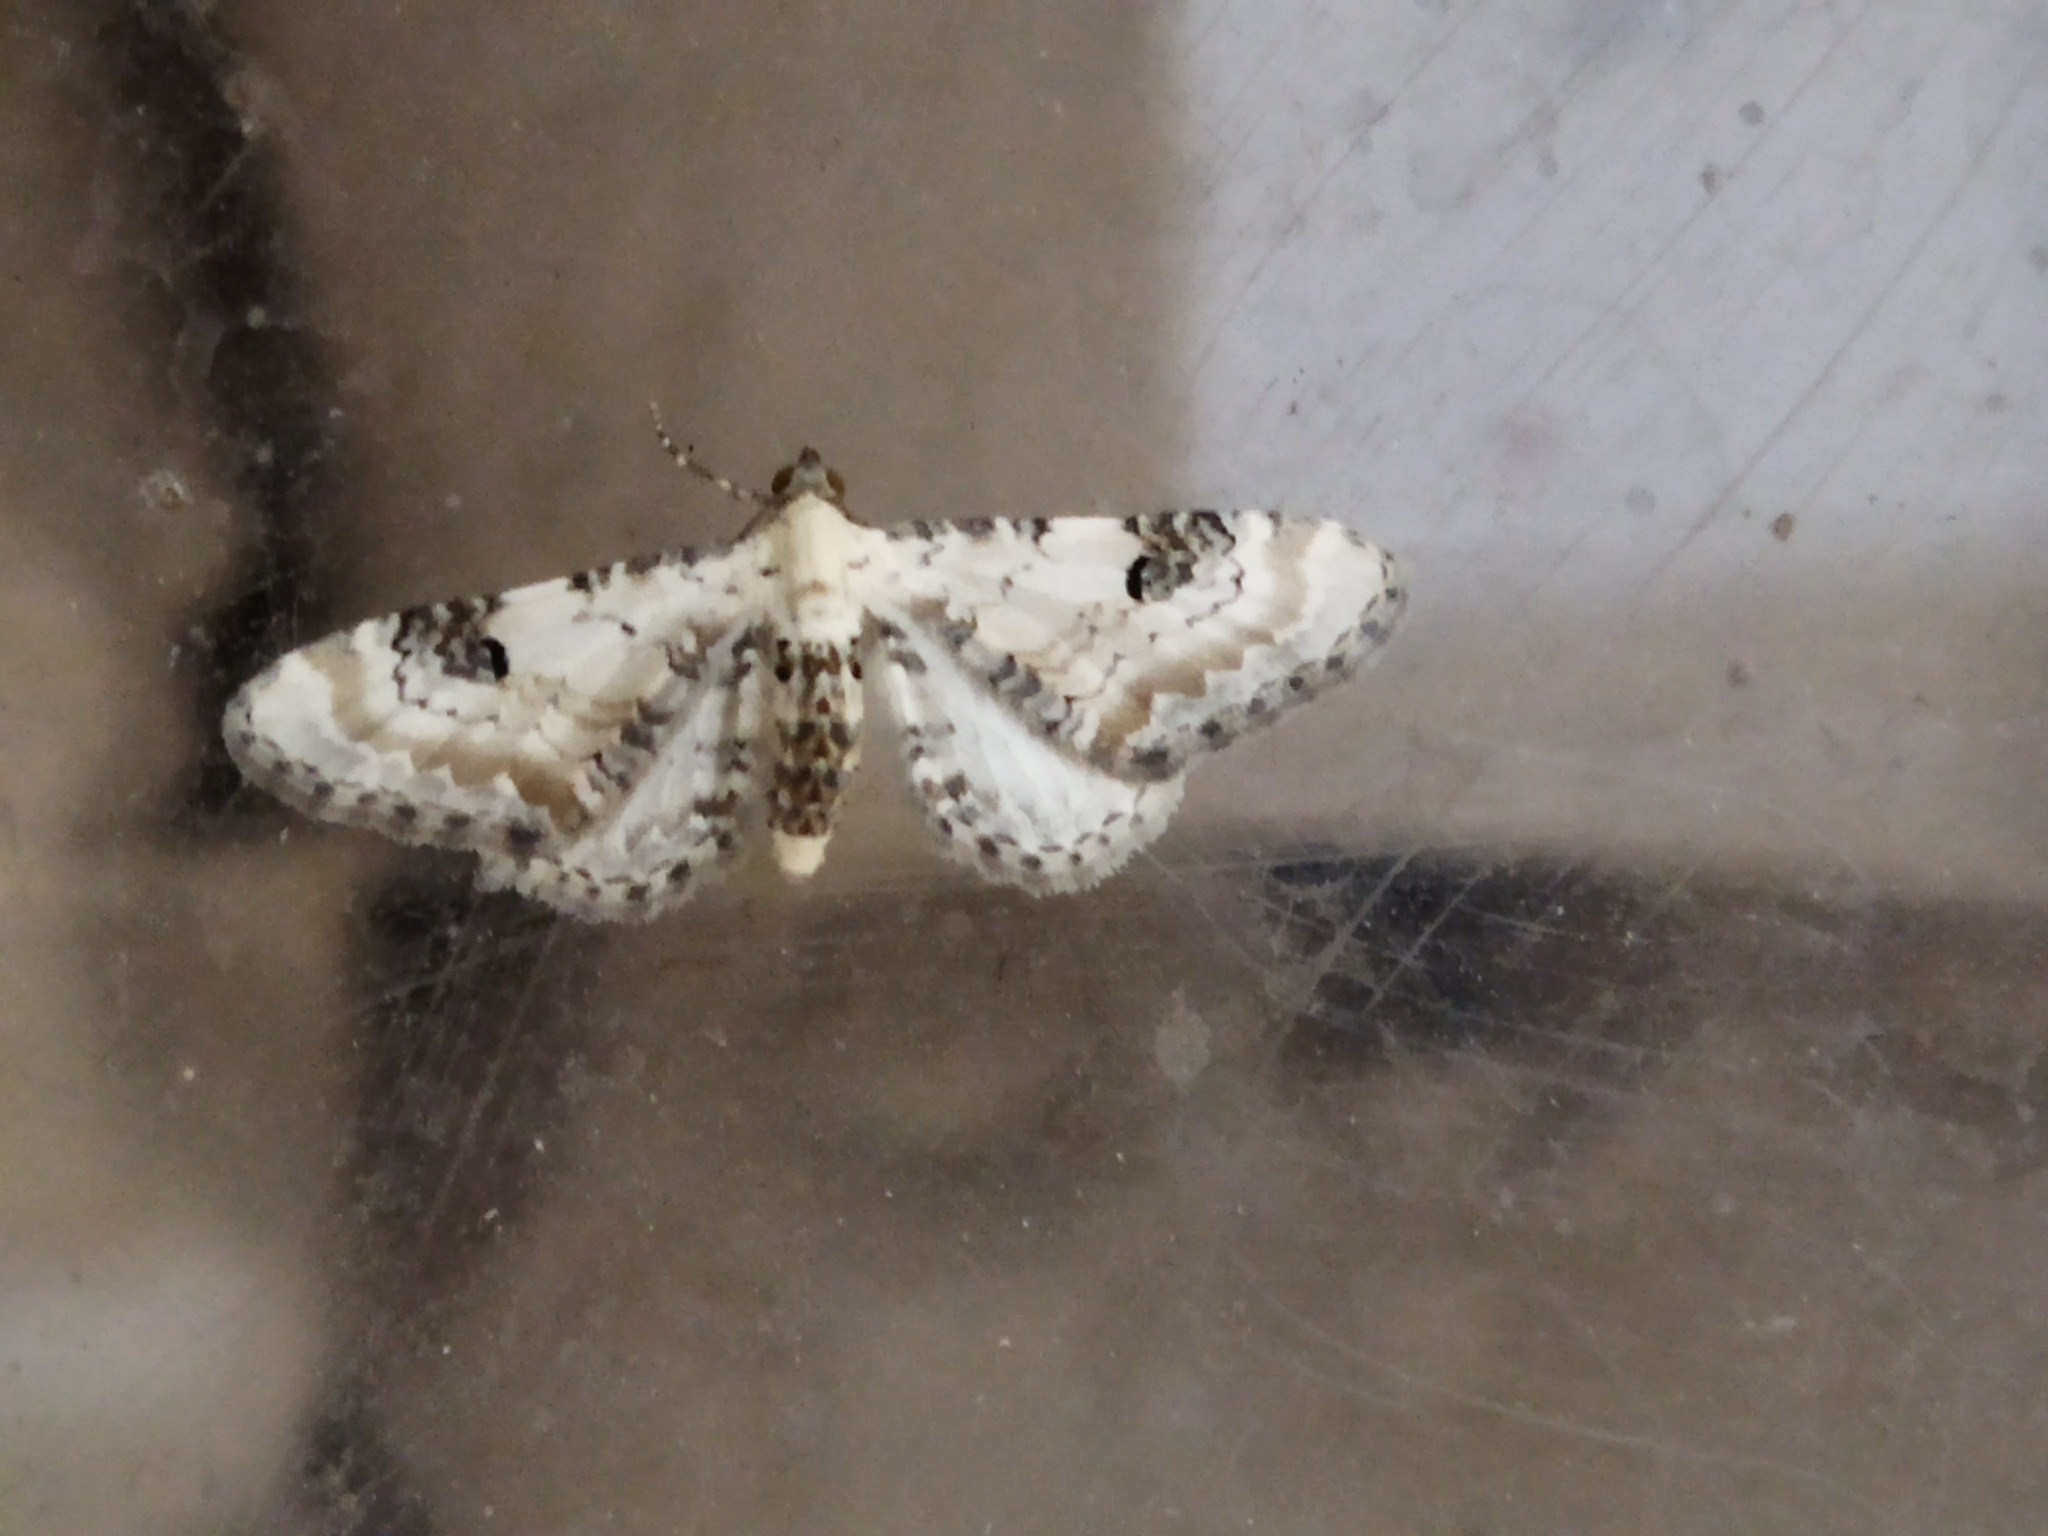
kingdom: Animalia
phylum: Arthropoda
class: Insecta
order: Lepidoptera
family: Geometridae
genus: Eupithecia
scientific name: Eupithecia centaureata
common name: Lime-speck pug
